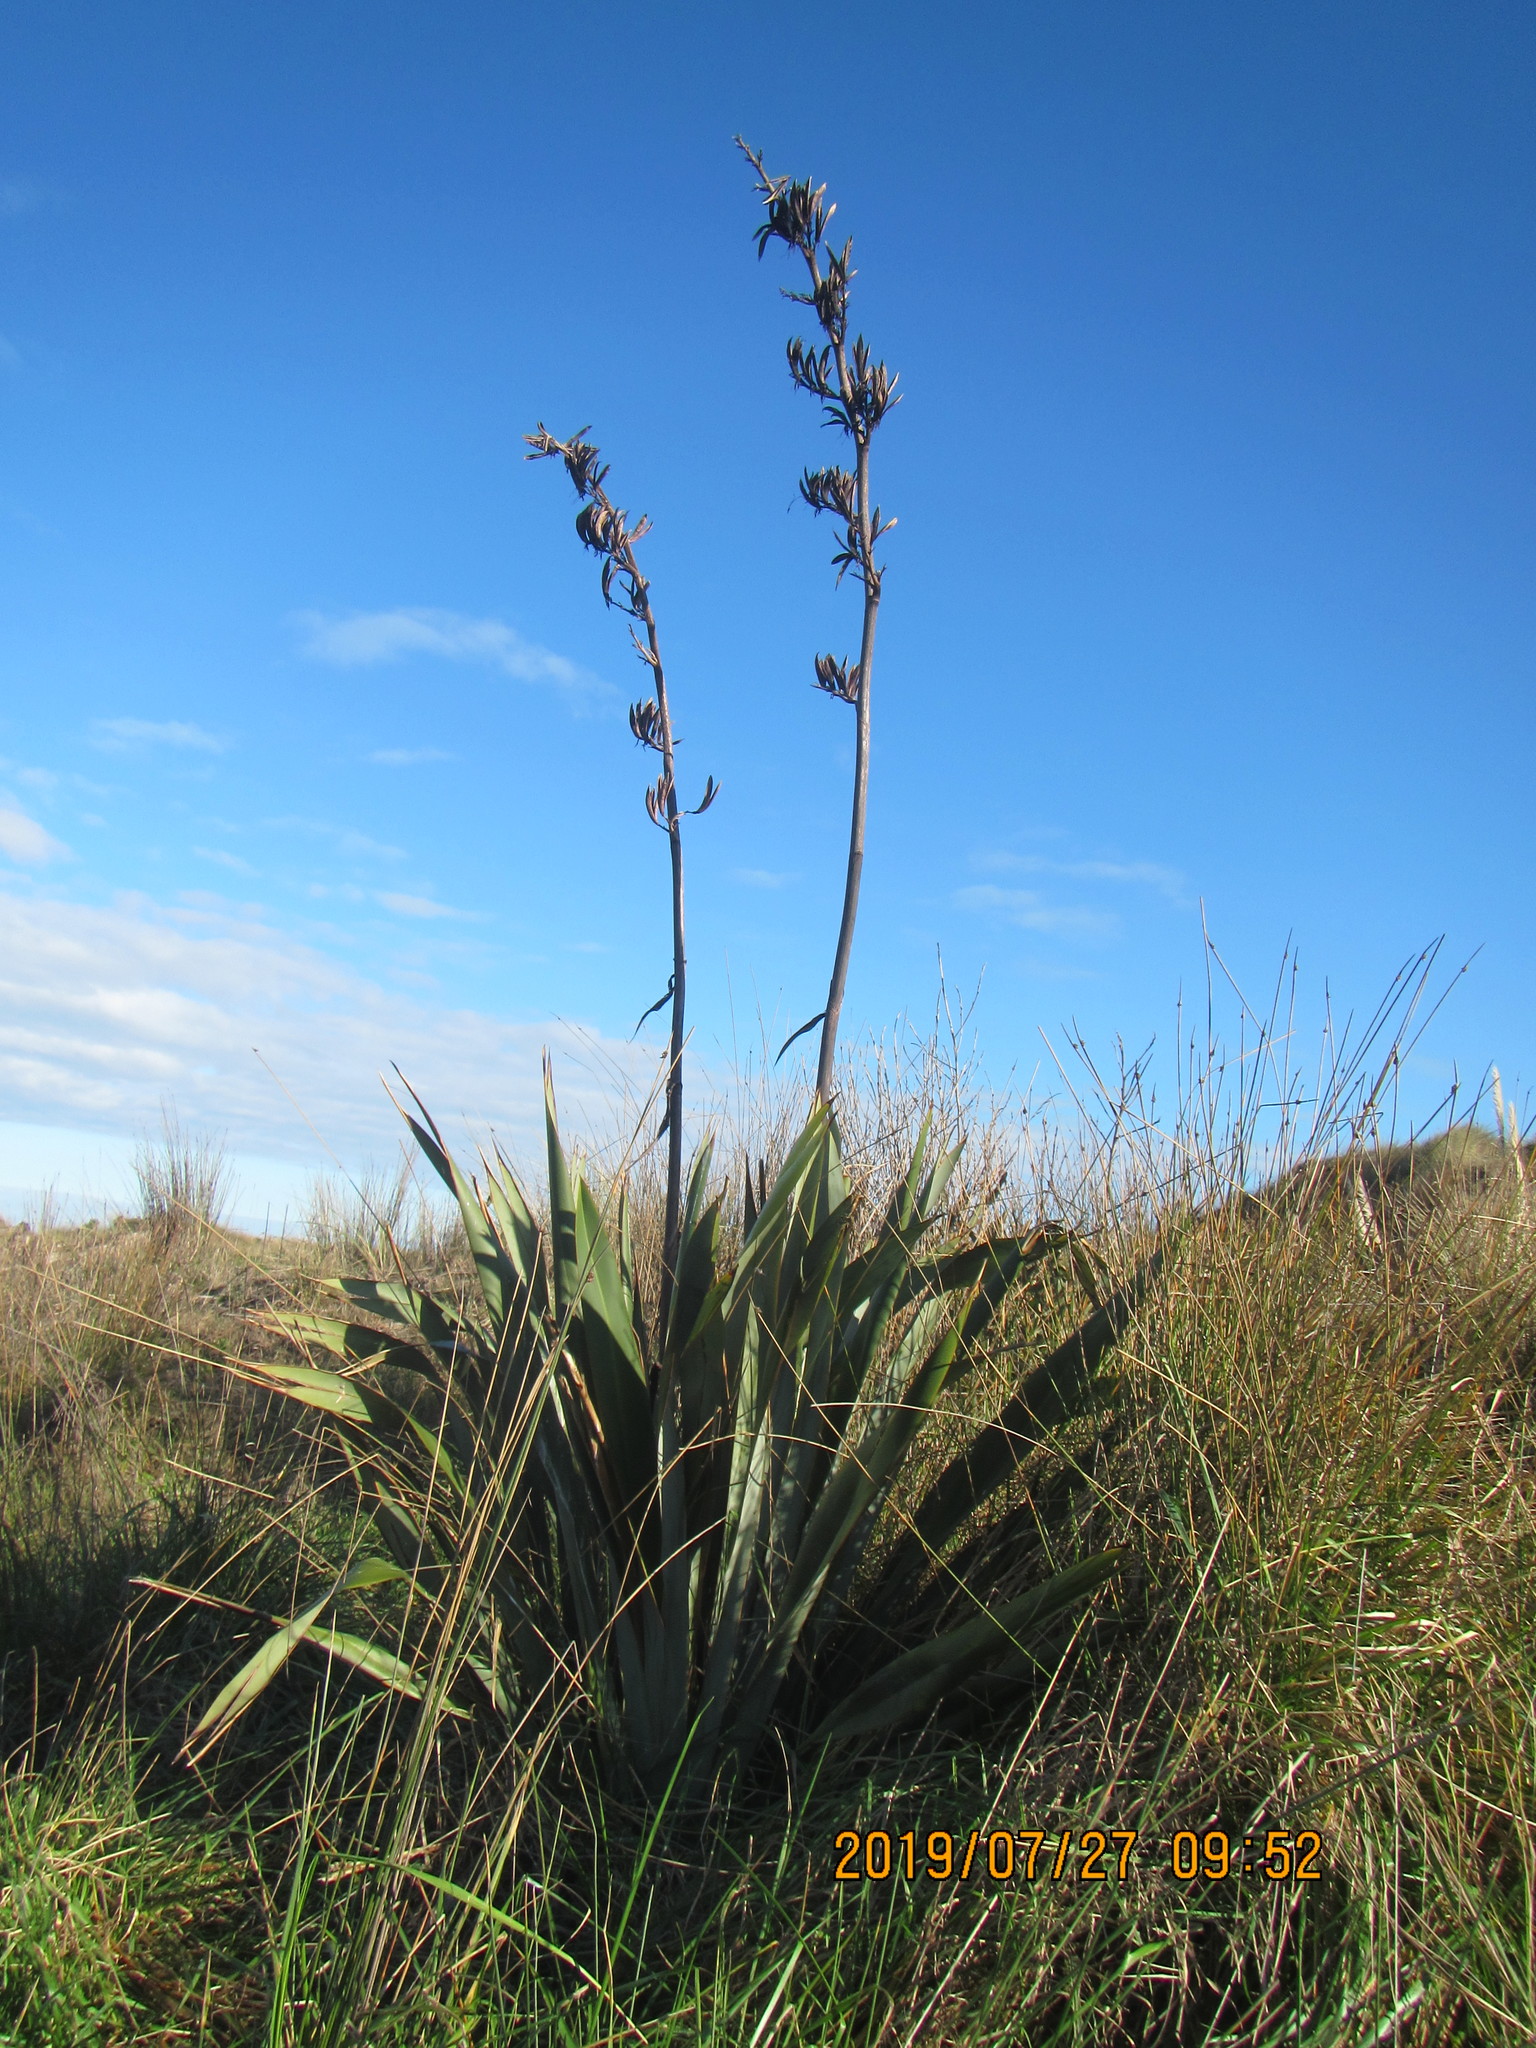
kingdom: Plantae
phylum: Tracheophyta
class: Liliopsida
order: Asparagales
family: Asphodelaceae
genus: Phormium
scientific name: Phormium tenax
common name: New zealand flax
